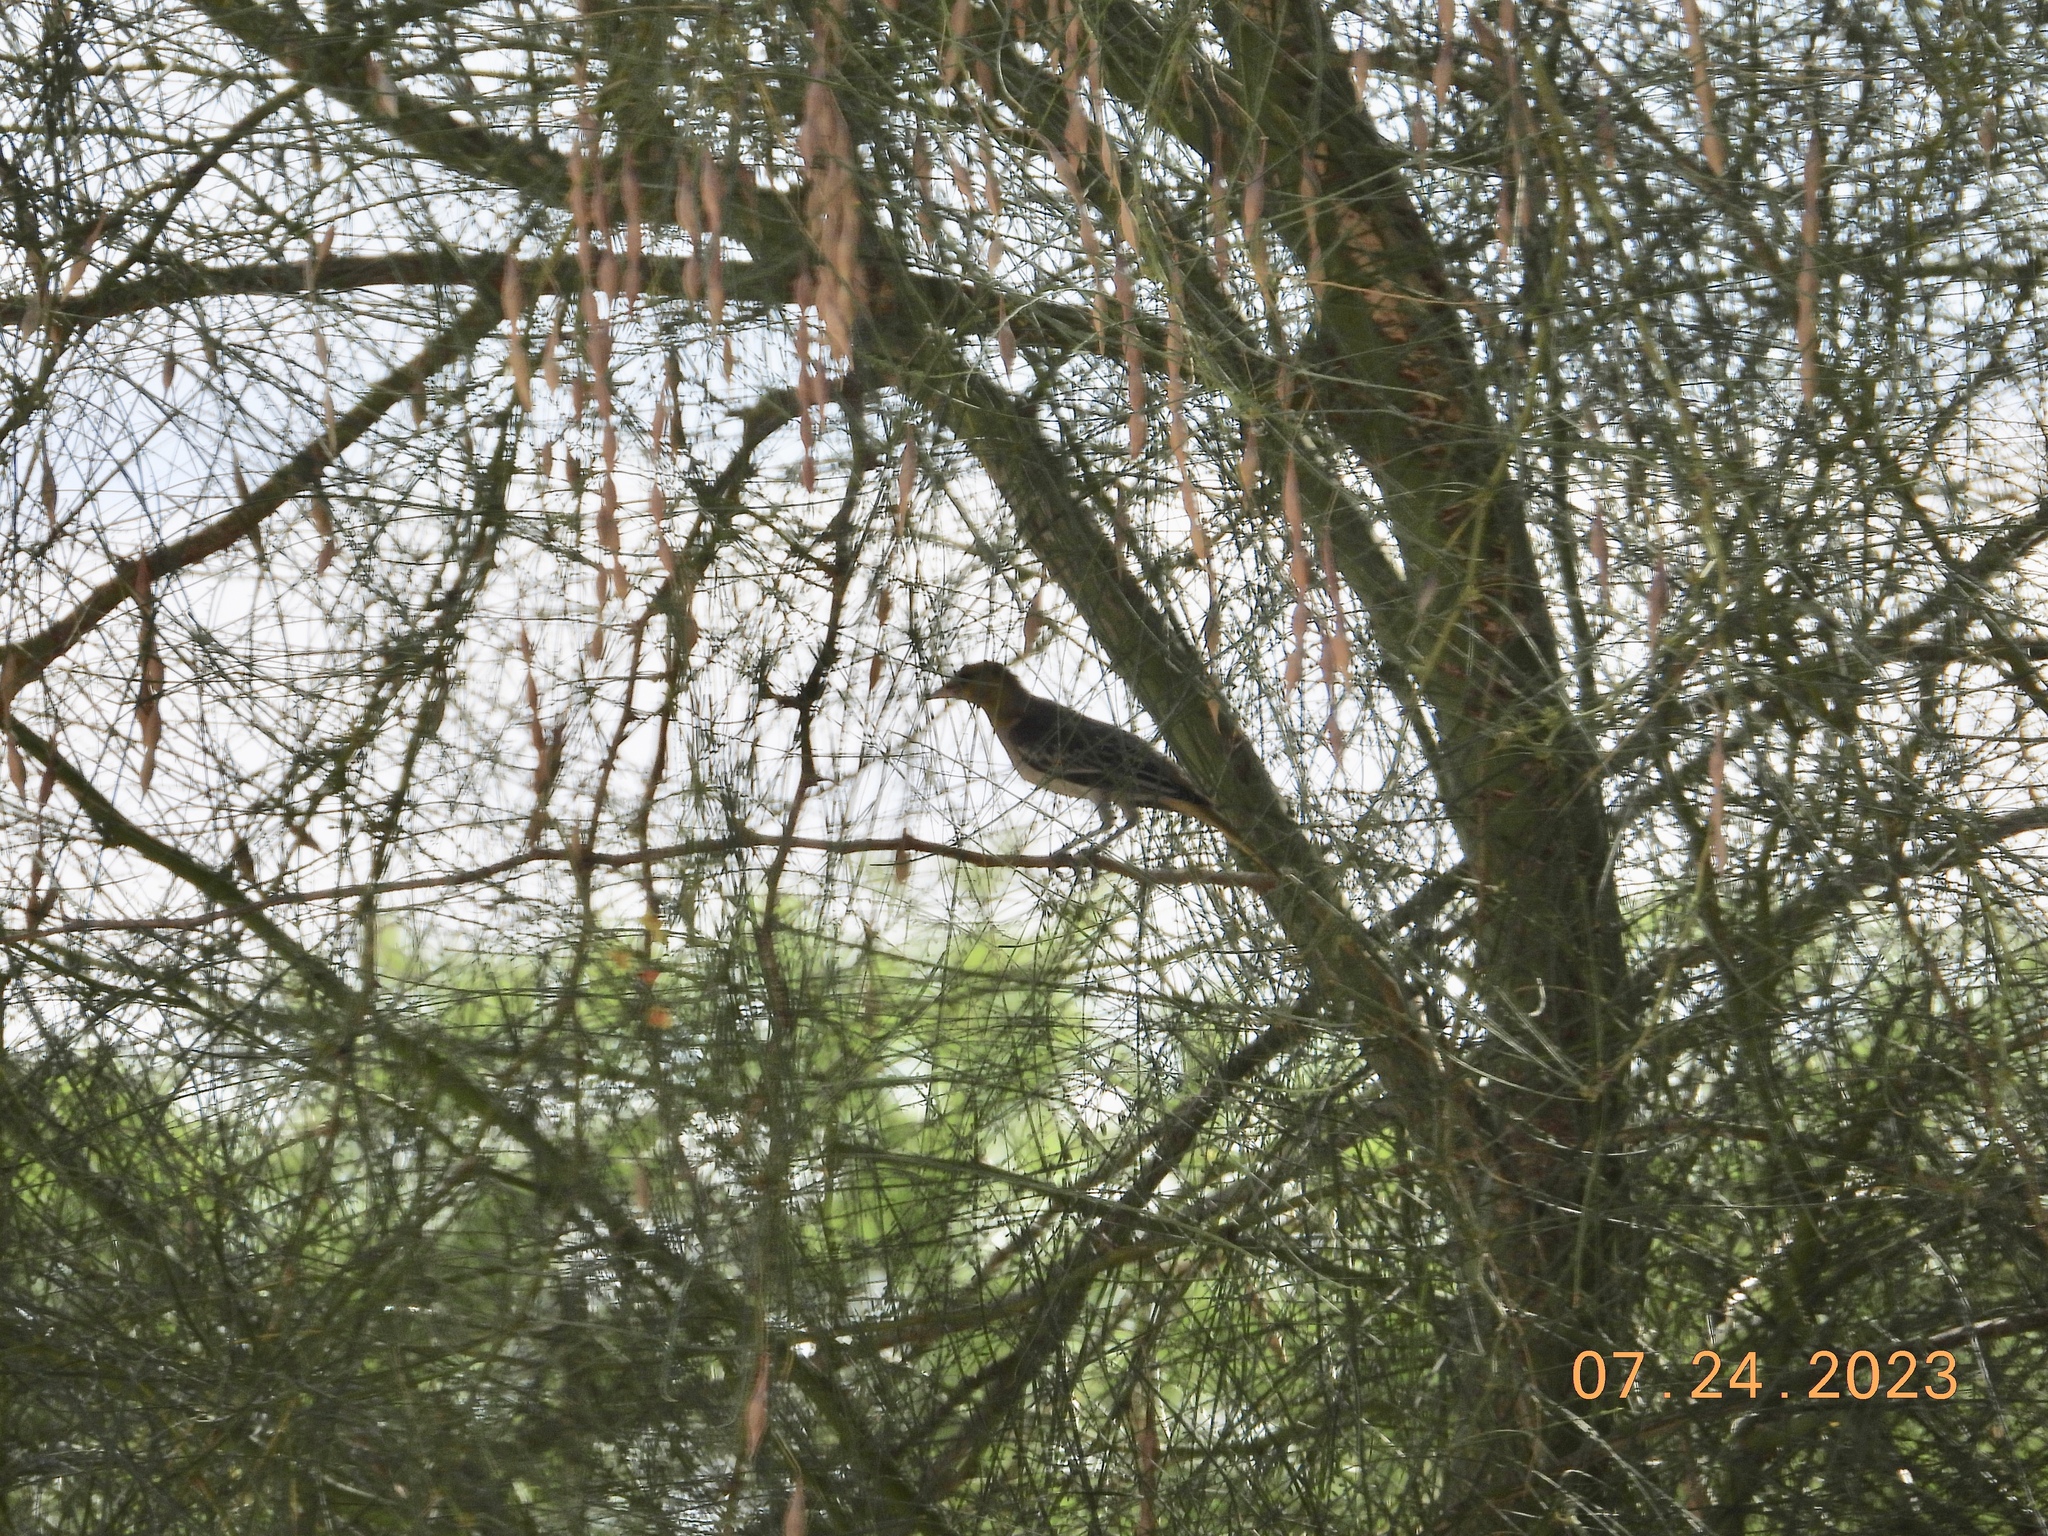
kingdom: Animalia
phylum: Chordata
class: Aves
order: Passeriformes
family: Icteridae
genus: Icterus
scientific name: Icterus bullockii
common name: Bullock's oriole
